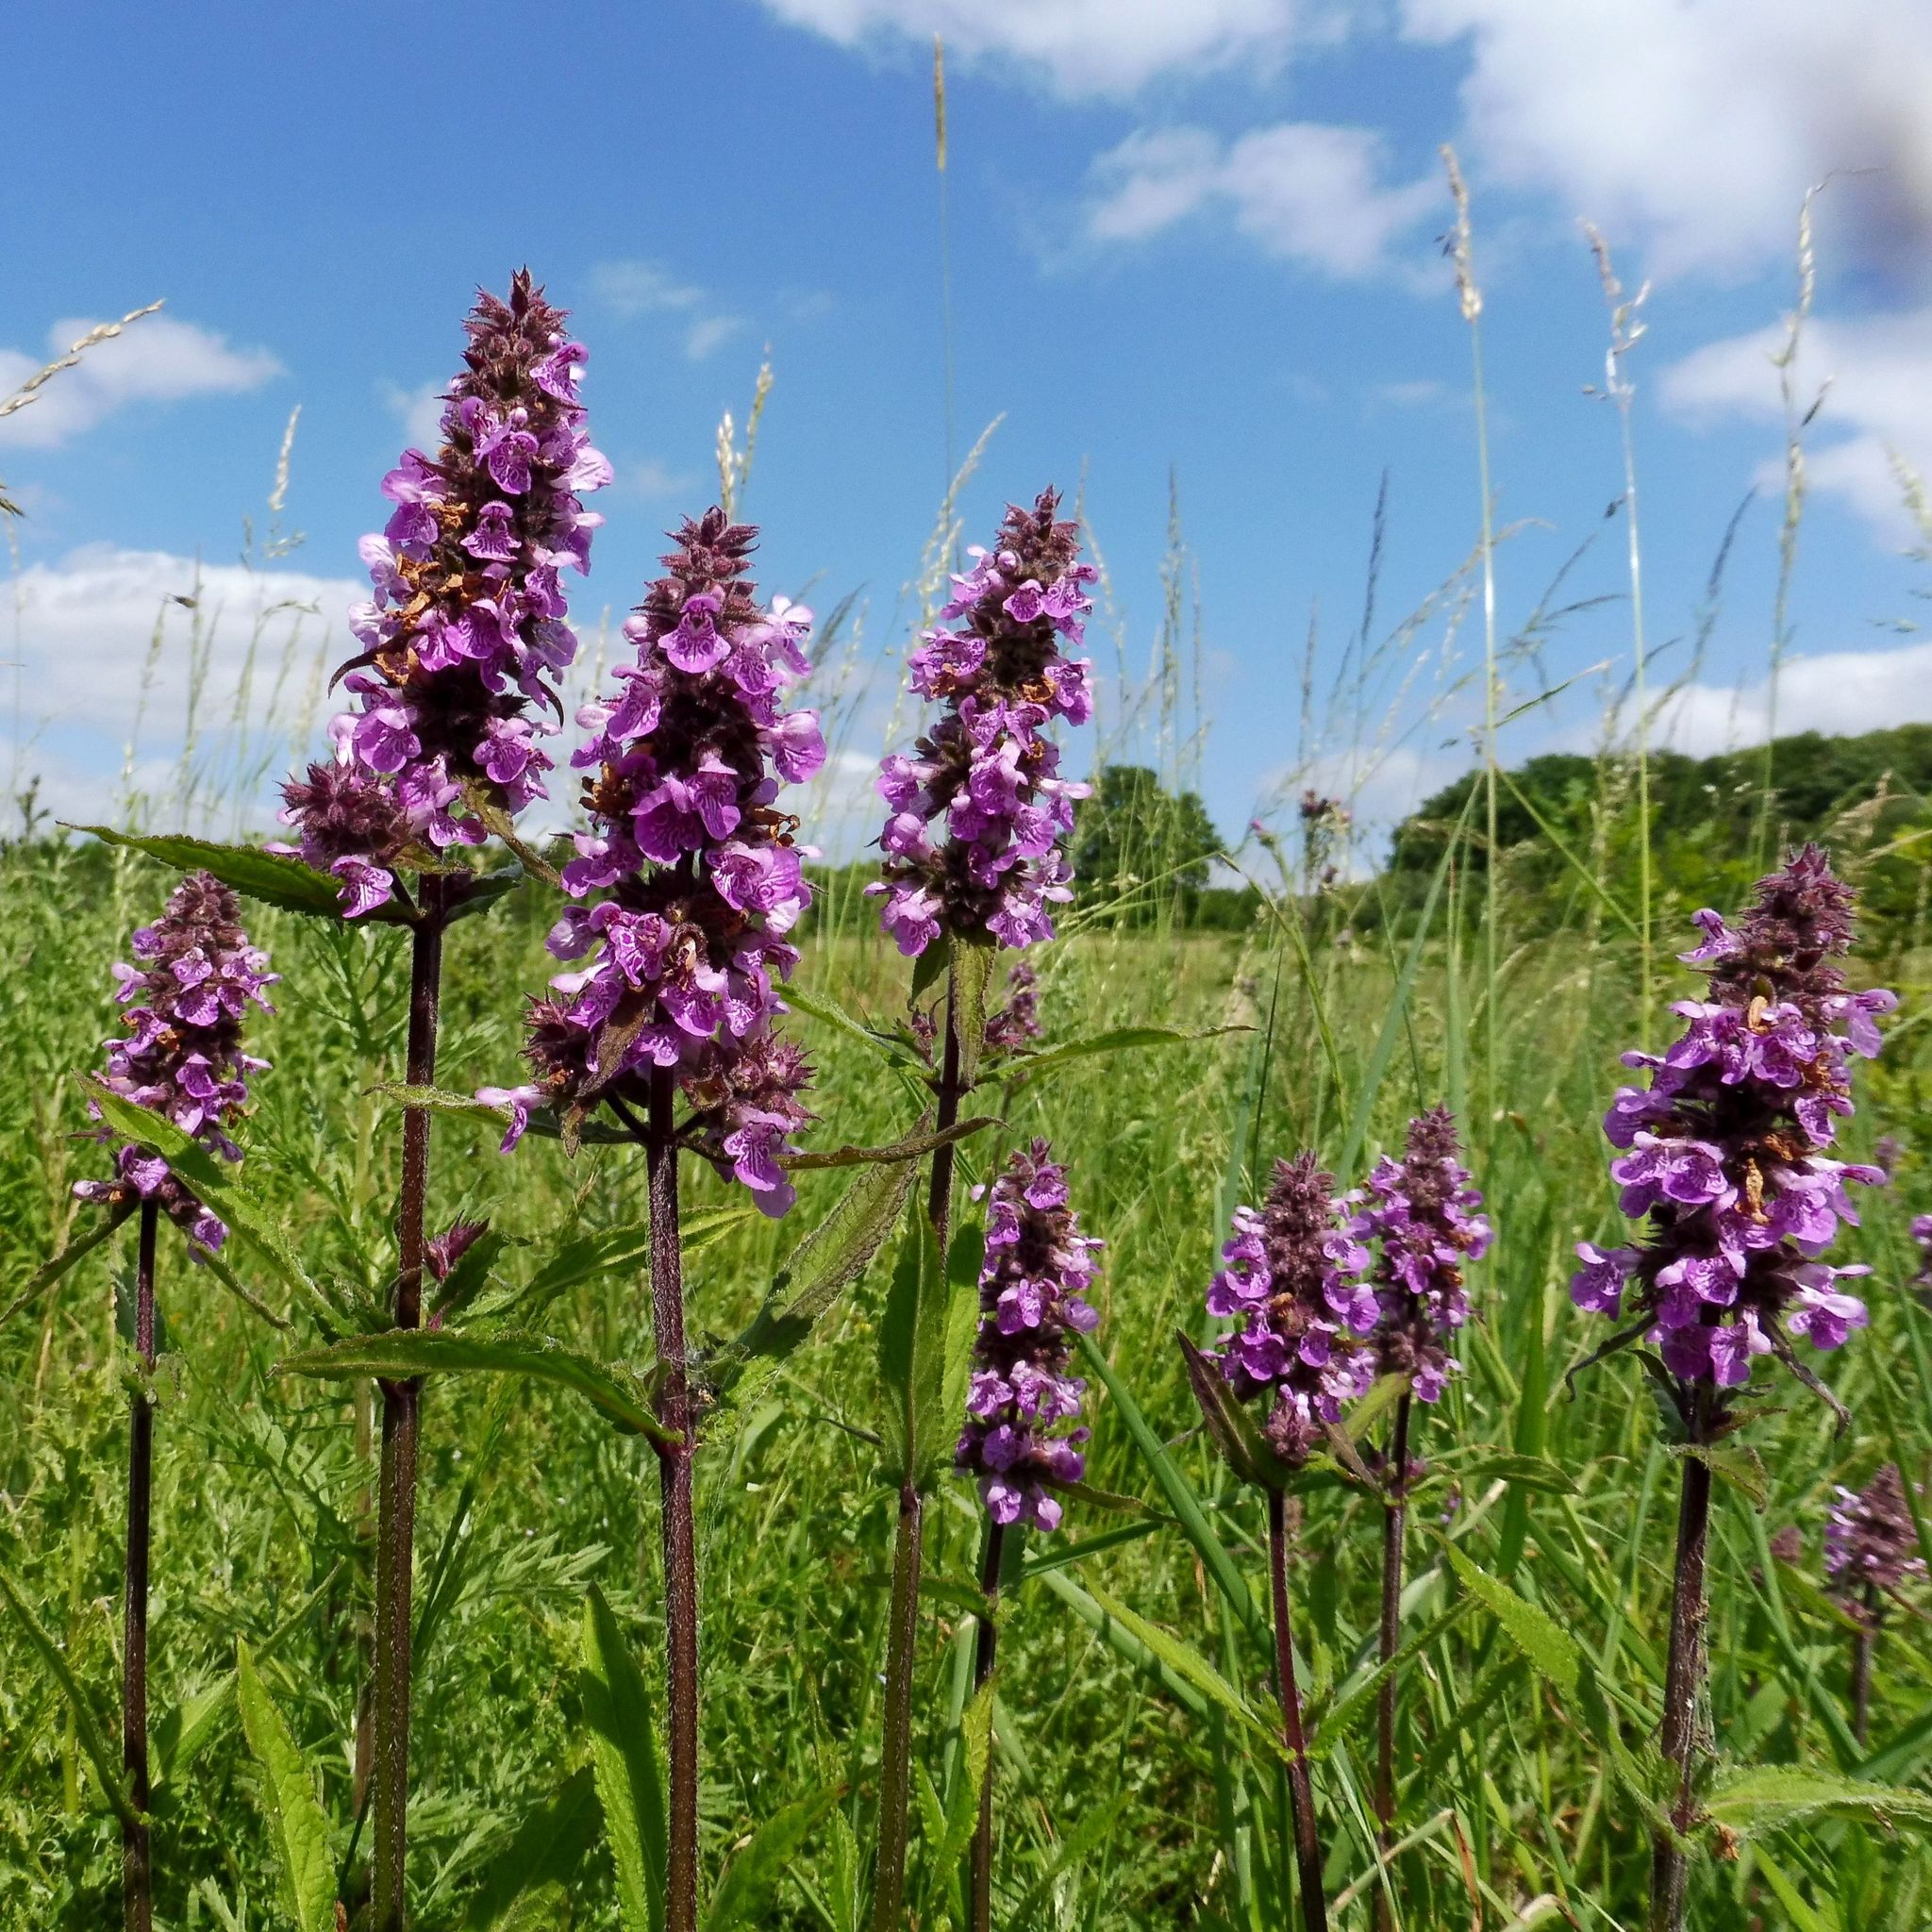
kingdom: Plantae
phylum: Tracheophyta
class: Magnoliopsida
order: Lamiales
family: Lamiaceae
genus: Stachys
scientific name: Stachys palustris
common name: Marsh woundwort
